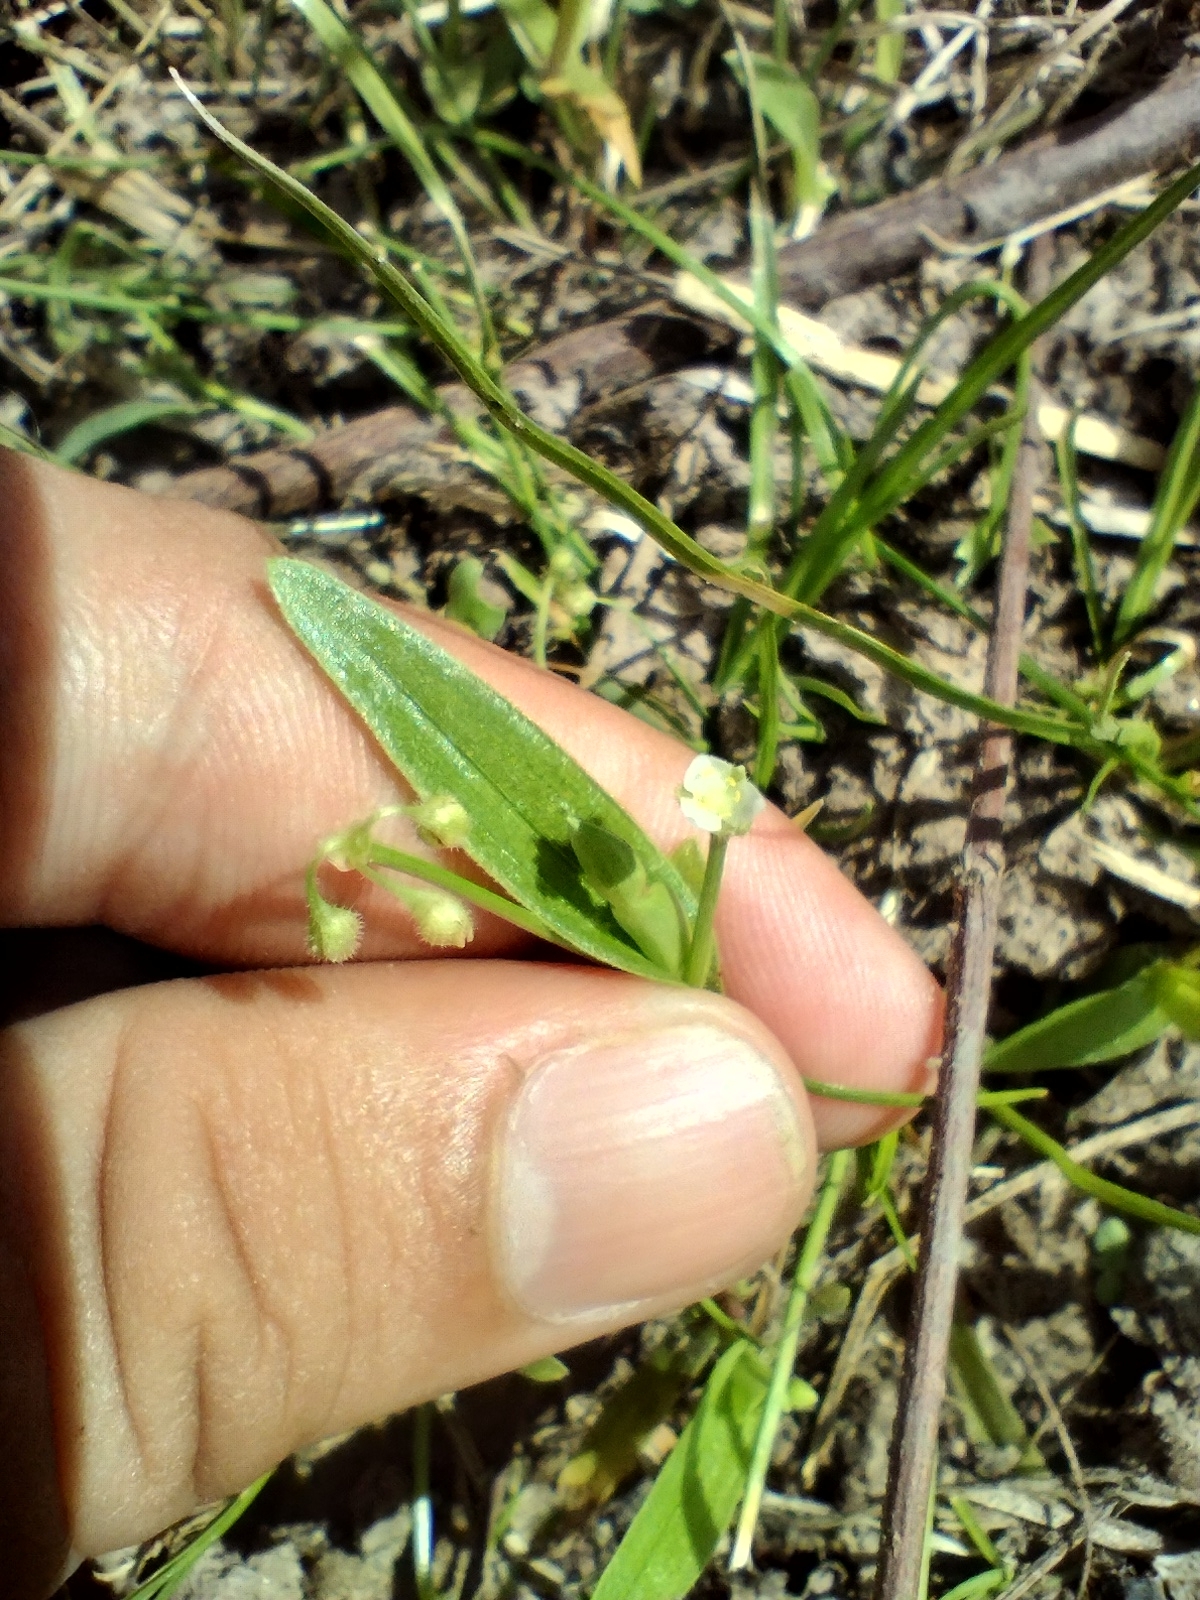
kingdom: Plantae
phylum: Tracheophyta
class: Liliopsida
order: Commelinales
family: Commelinaceae
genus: Callisia
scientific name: Callisia filiformis
